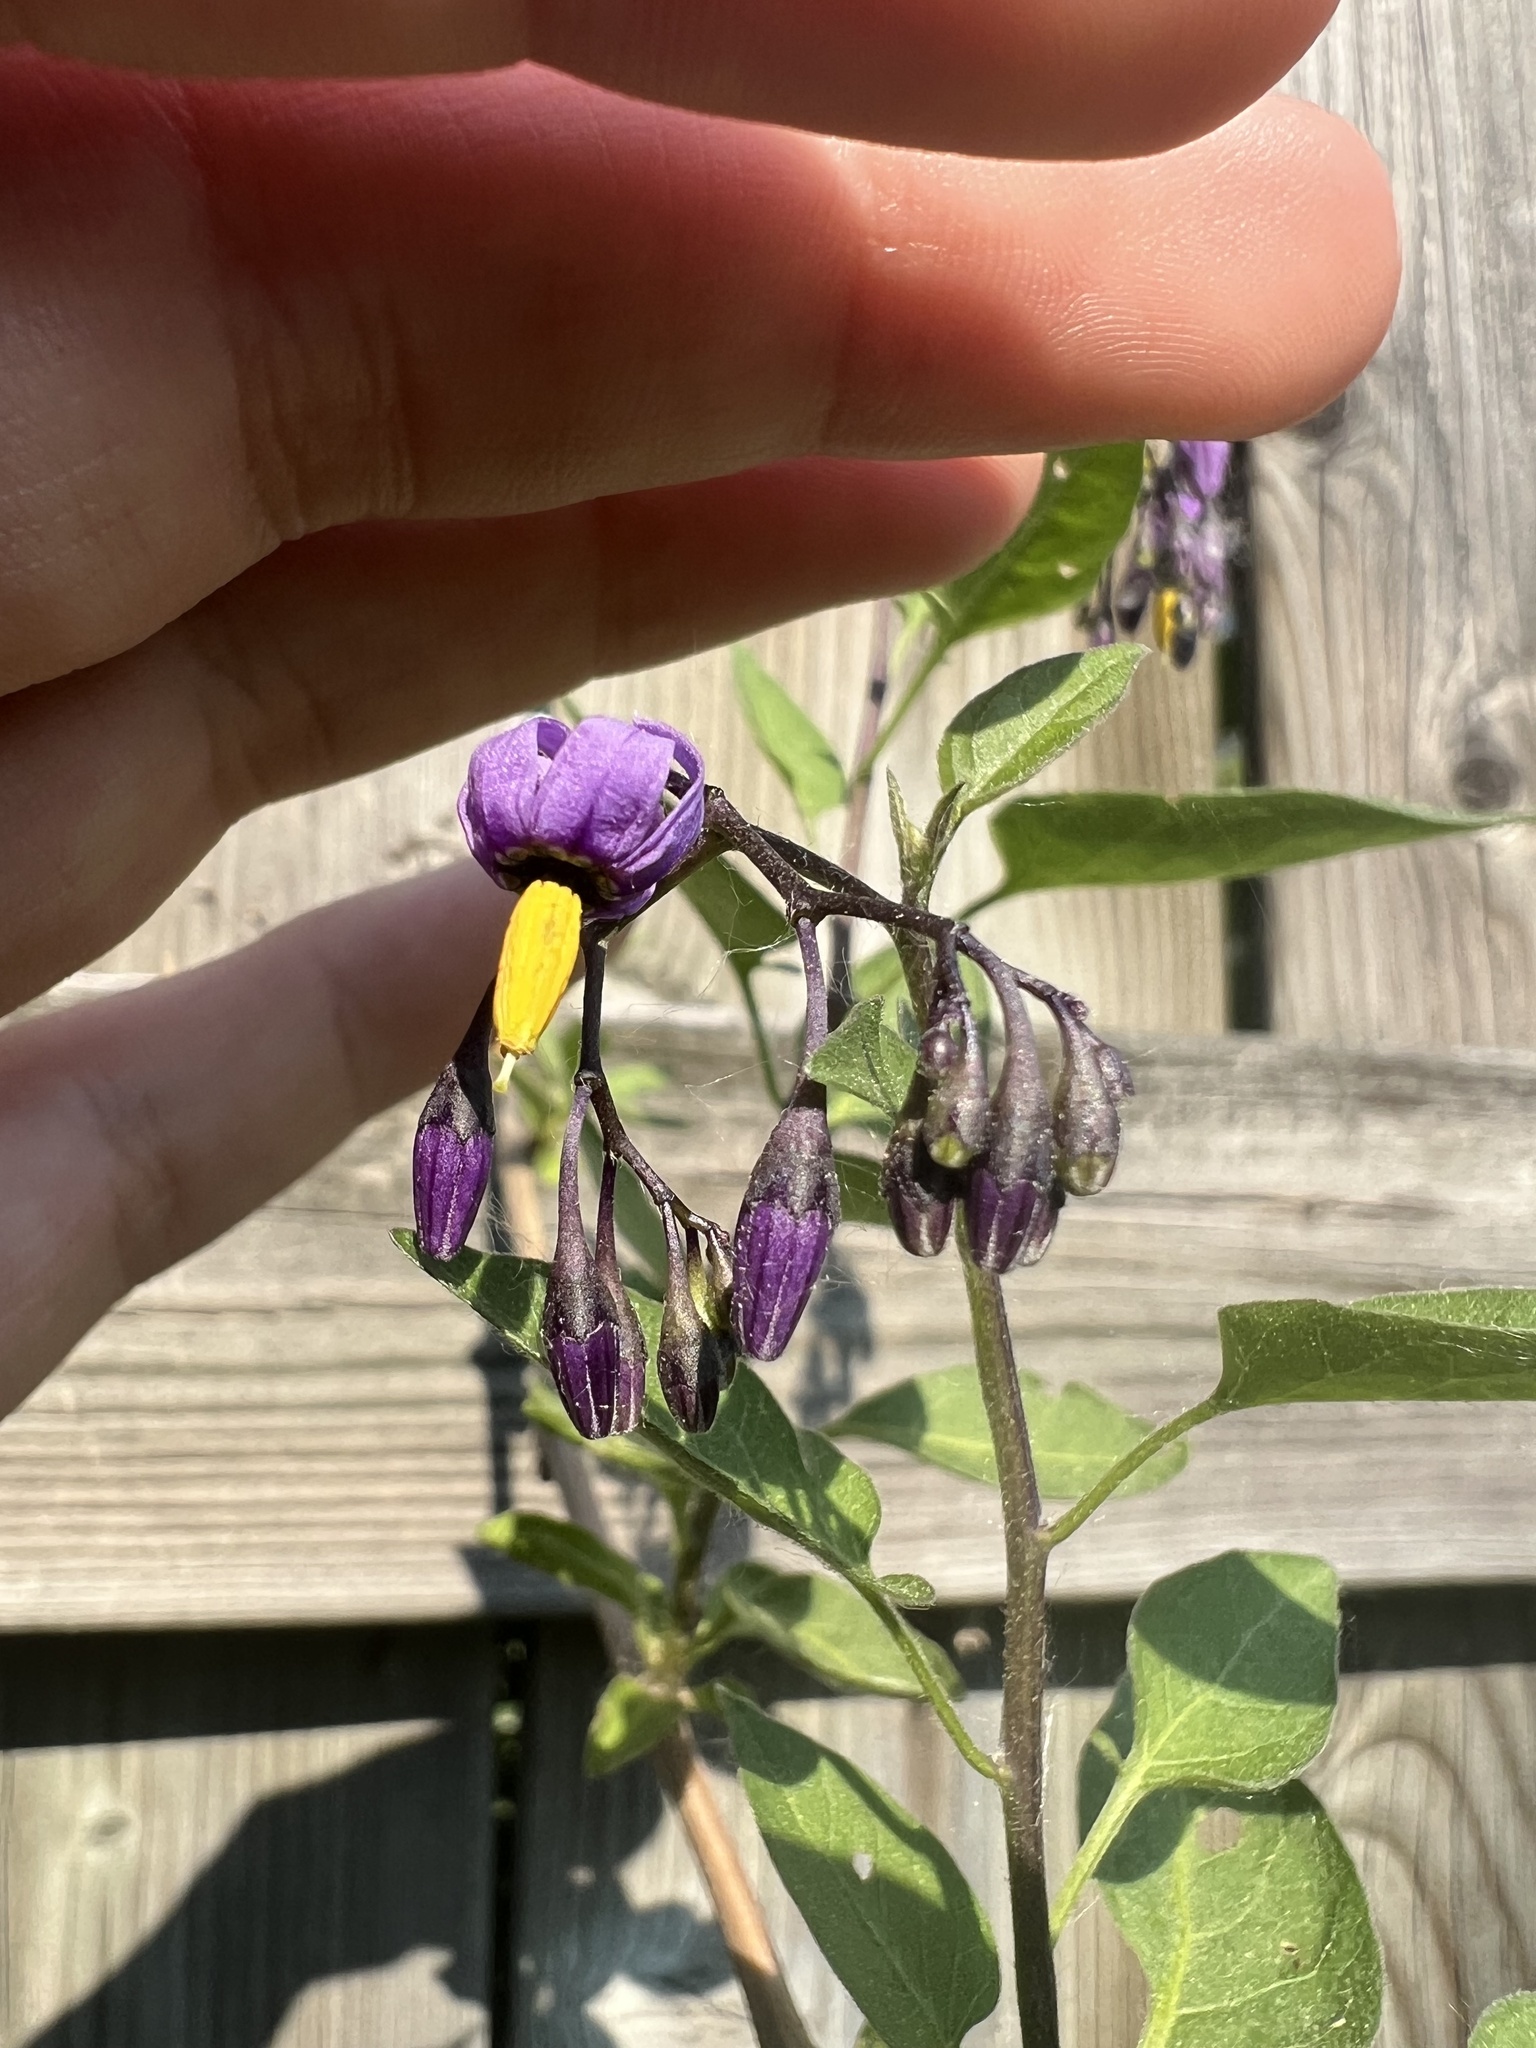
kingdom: Plantae
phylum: Tracheophyta
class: Magnoliopsida
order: Solanales
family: Solanaceae
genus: Solanum
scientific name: Solanum dulcamara
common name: Climbing nightshade
